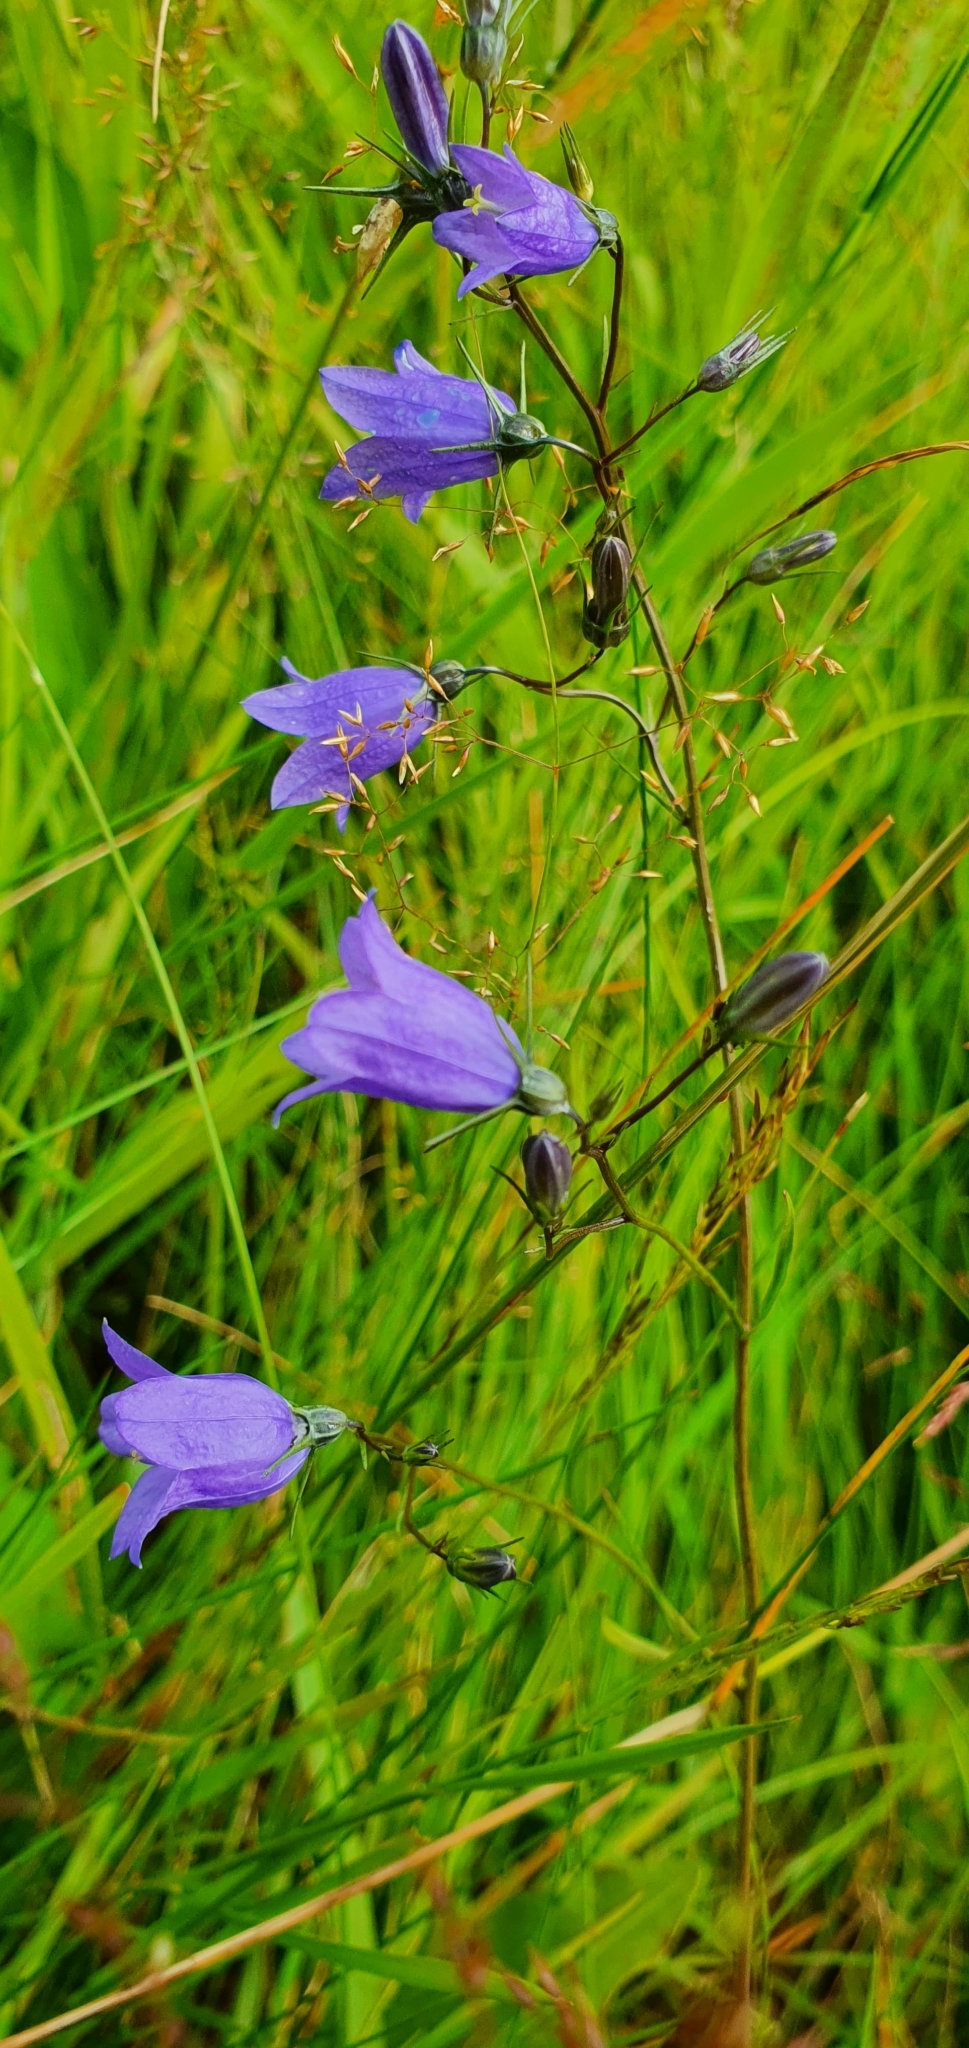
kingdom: Plantae
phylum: Tracheophyta
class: Magnoliopsida
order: Asterales
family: Campanulaceae
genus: Campanula
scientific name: Campanula rotundifolia
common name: Harebell
